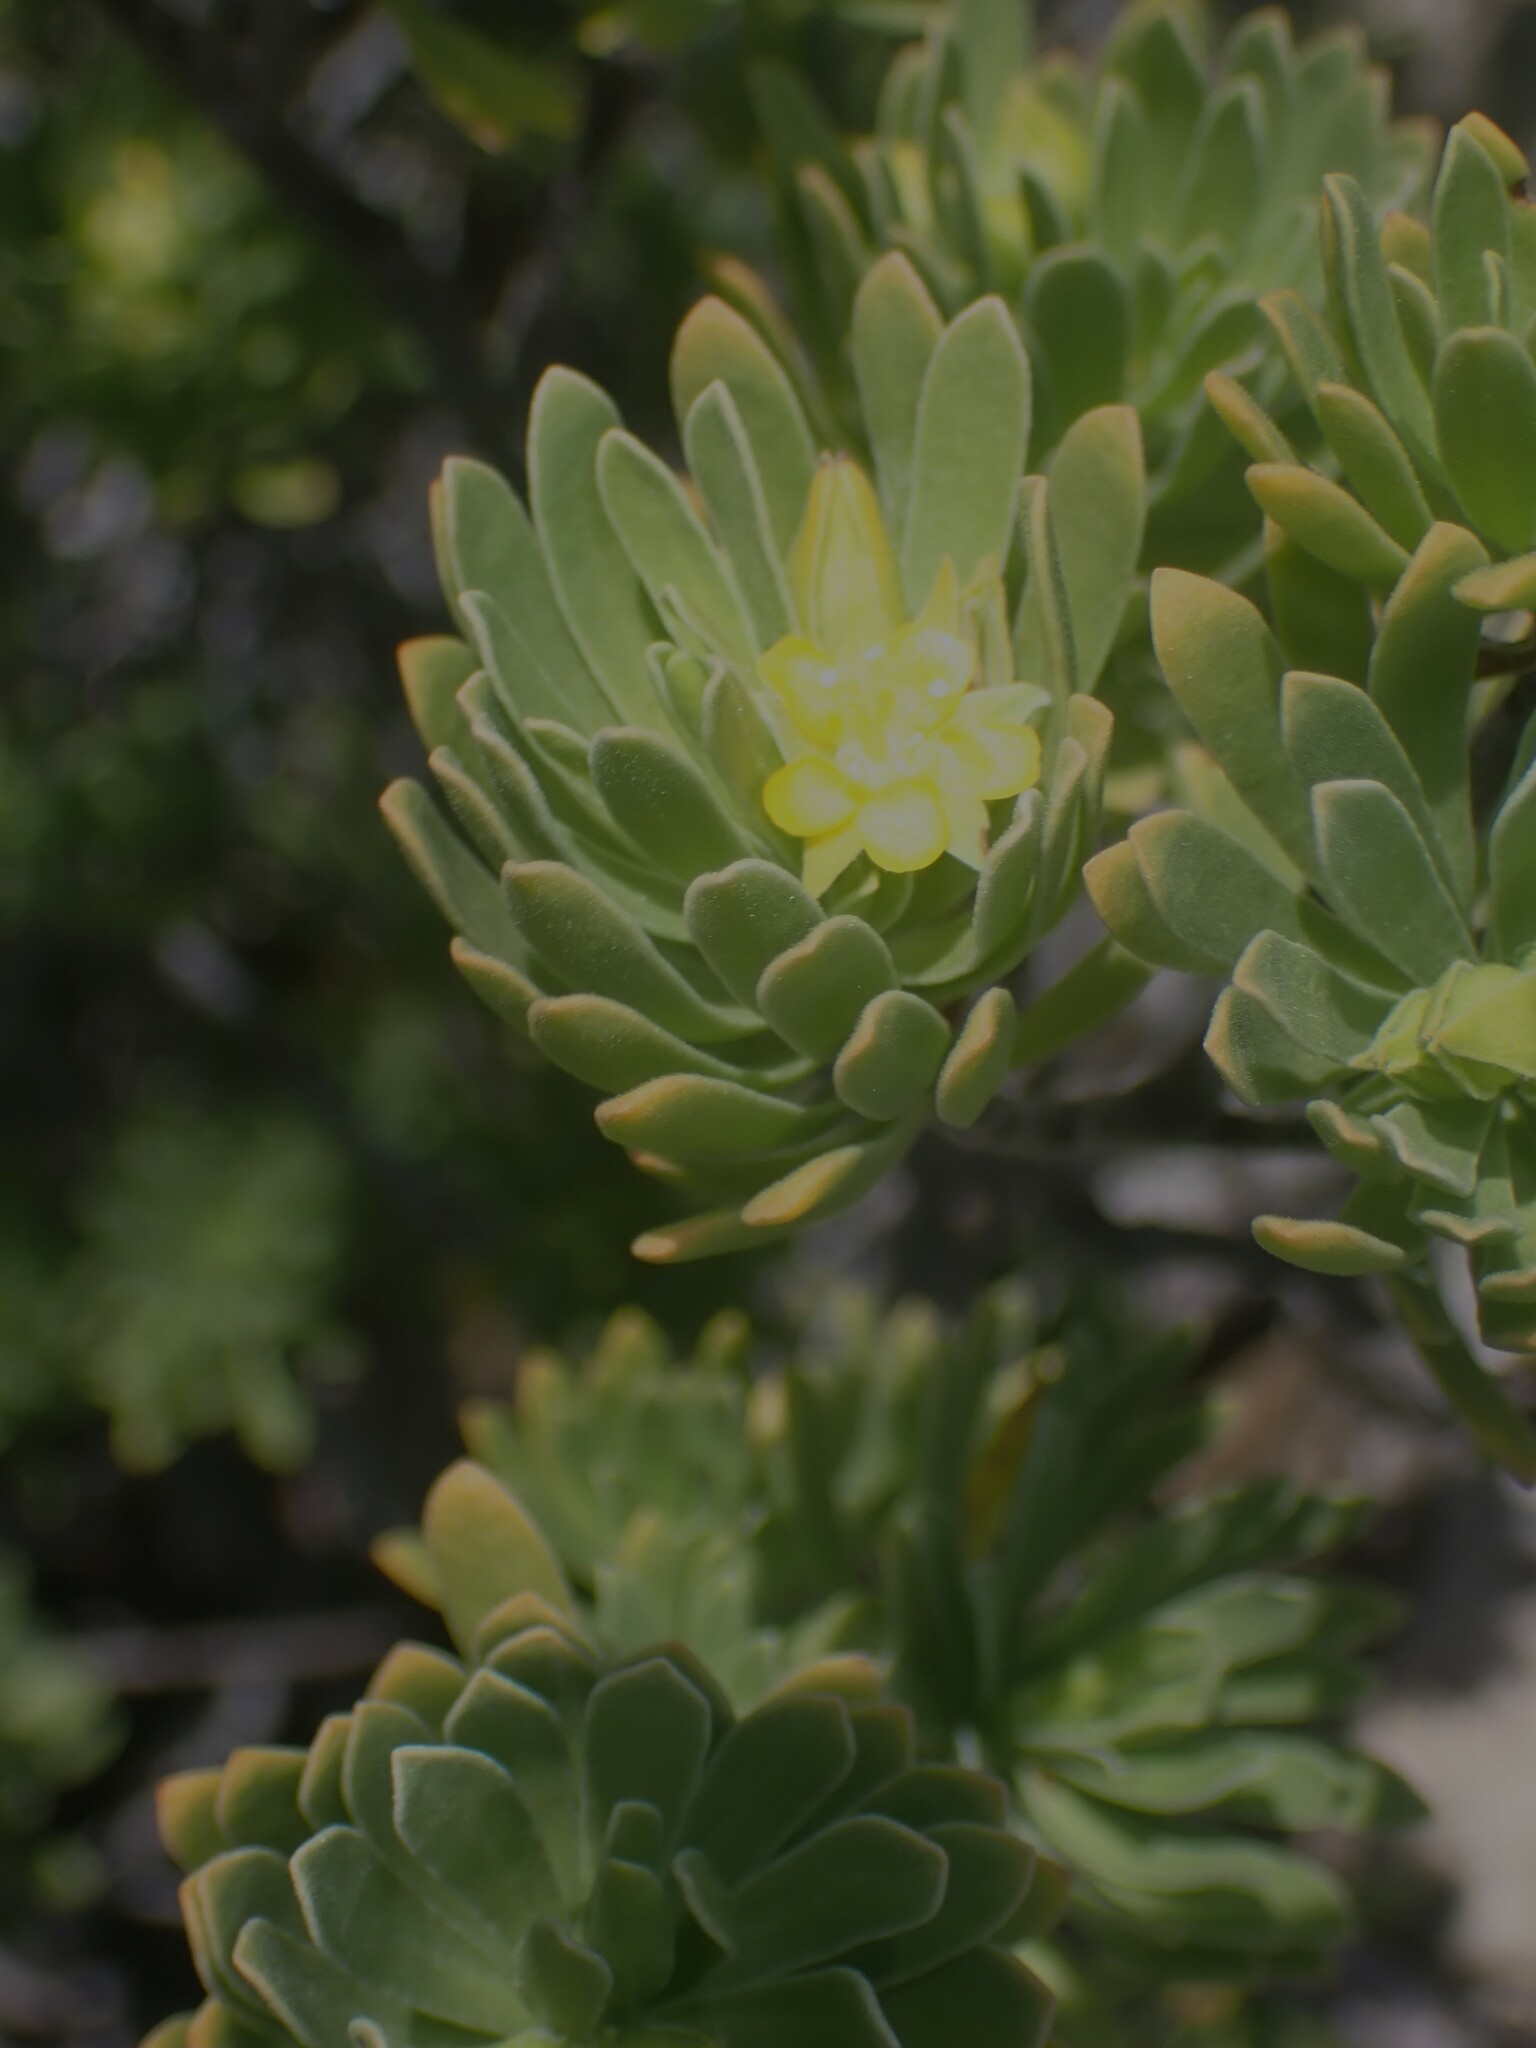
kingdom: Plantae
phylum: Tracheophyta
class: Magnoliopsida
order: Fabales
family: Surianaceae
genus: Suriana
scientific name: Suriana maritima
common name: Bay-cedar
